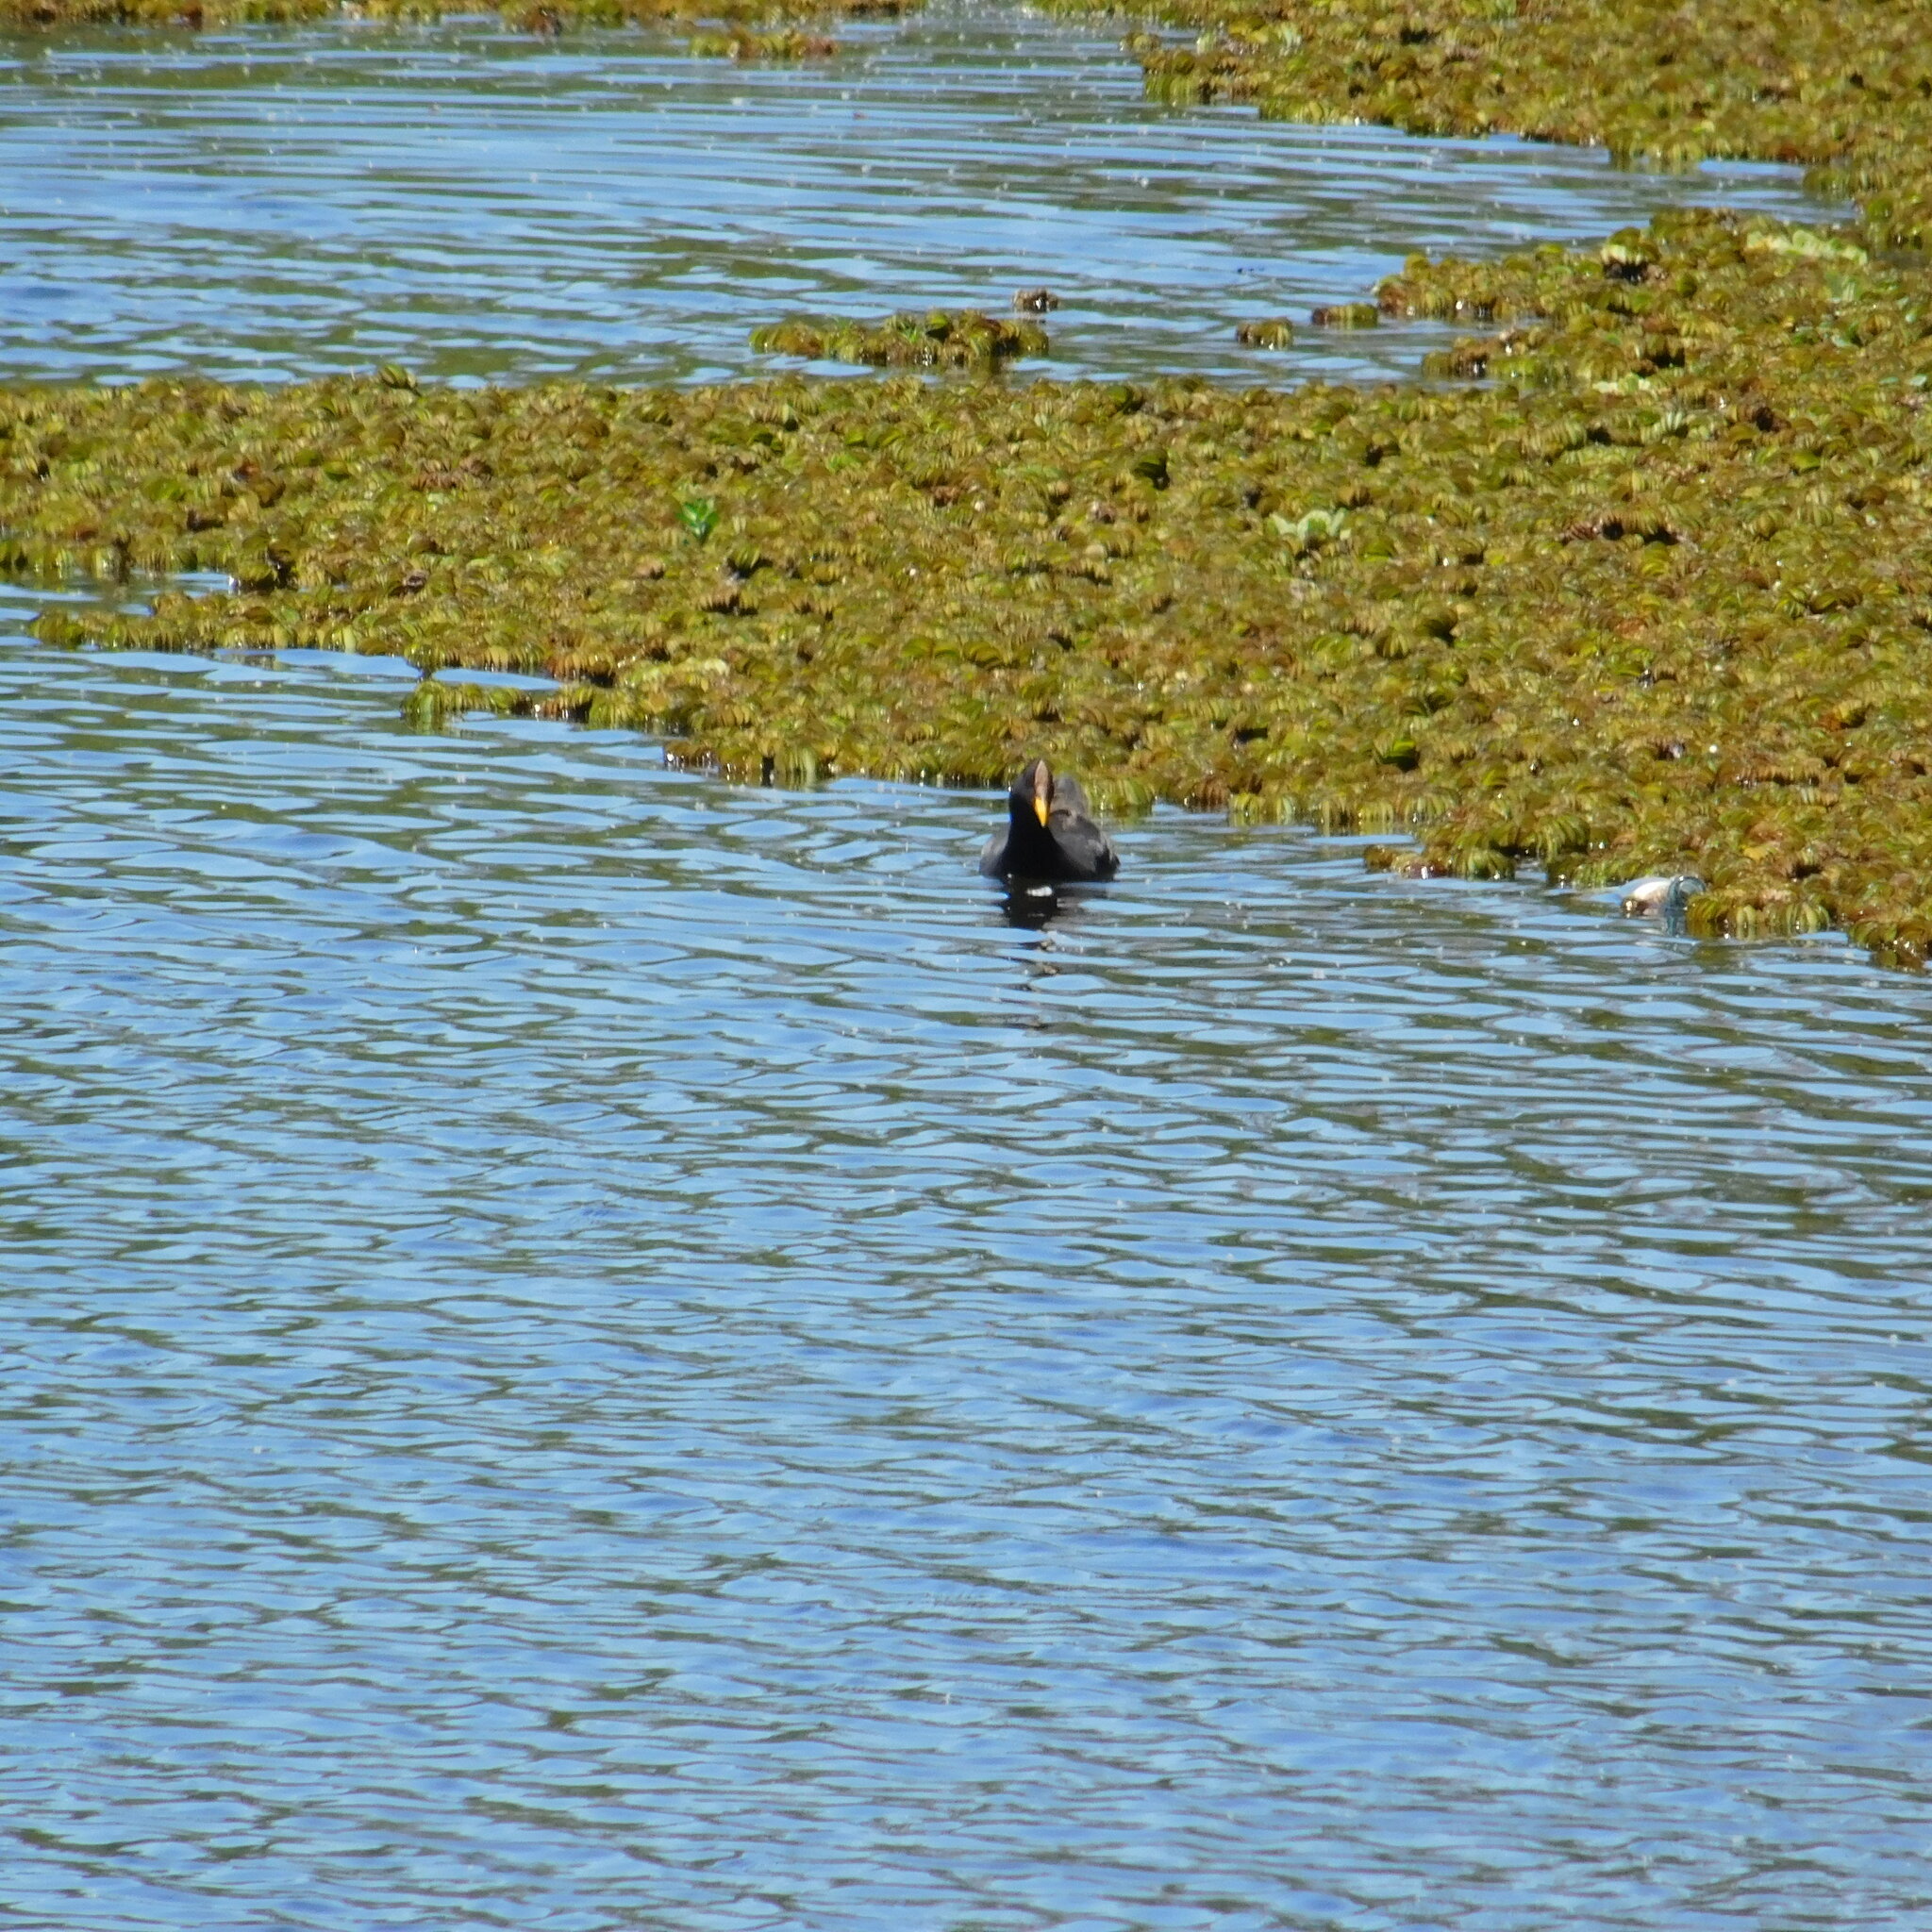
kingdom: Animalia
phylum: Chordata
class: Aves
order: Gruiformes
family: Rallidae
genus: Fulica
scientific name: Fulica rufifrons
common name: Red-fronted coot
